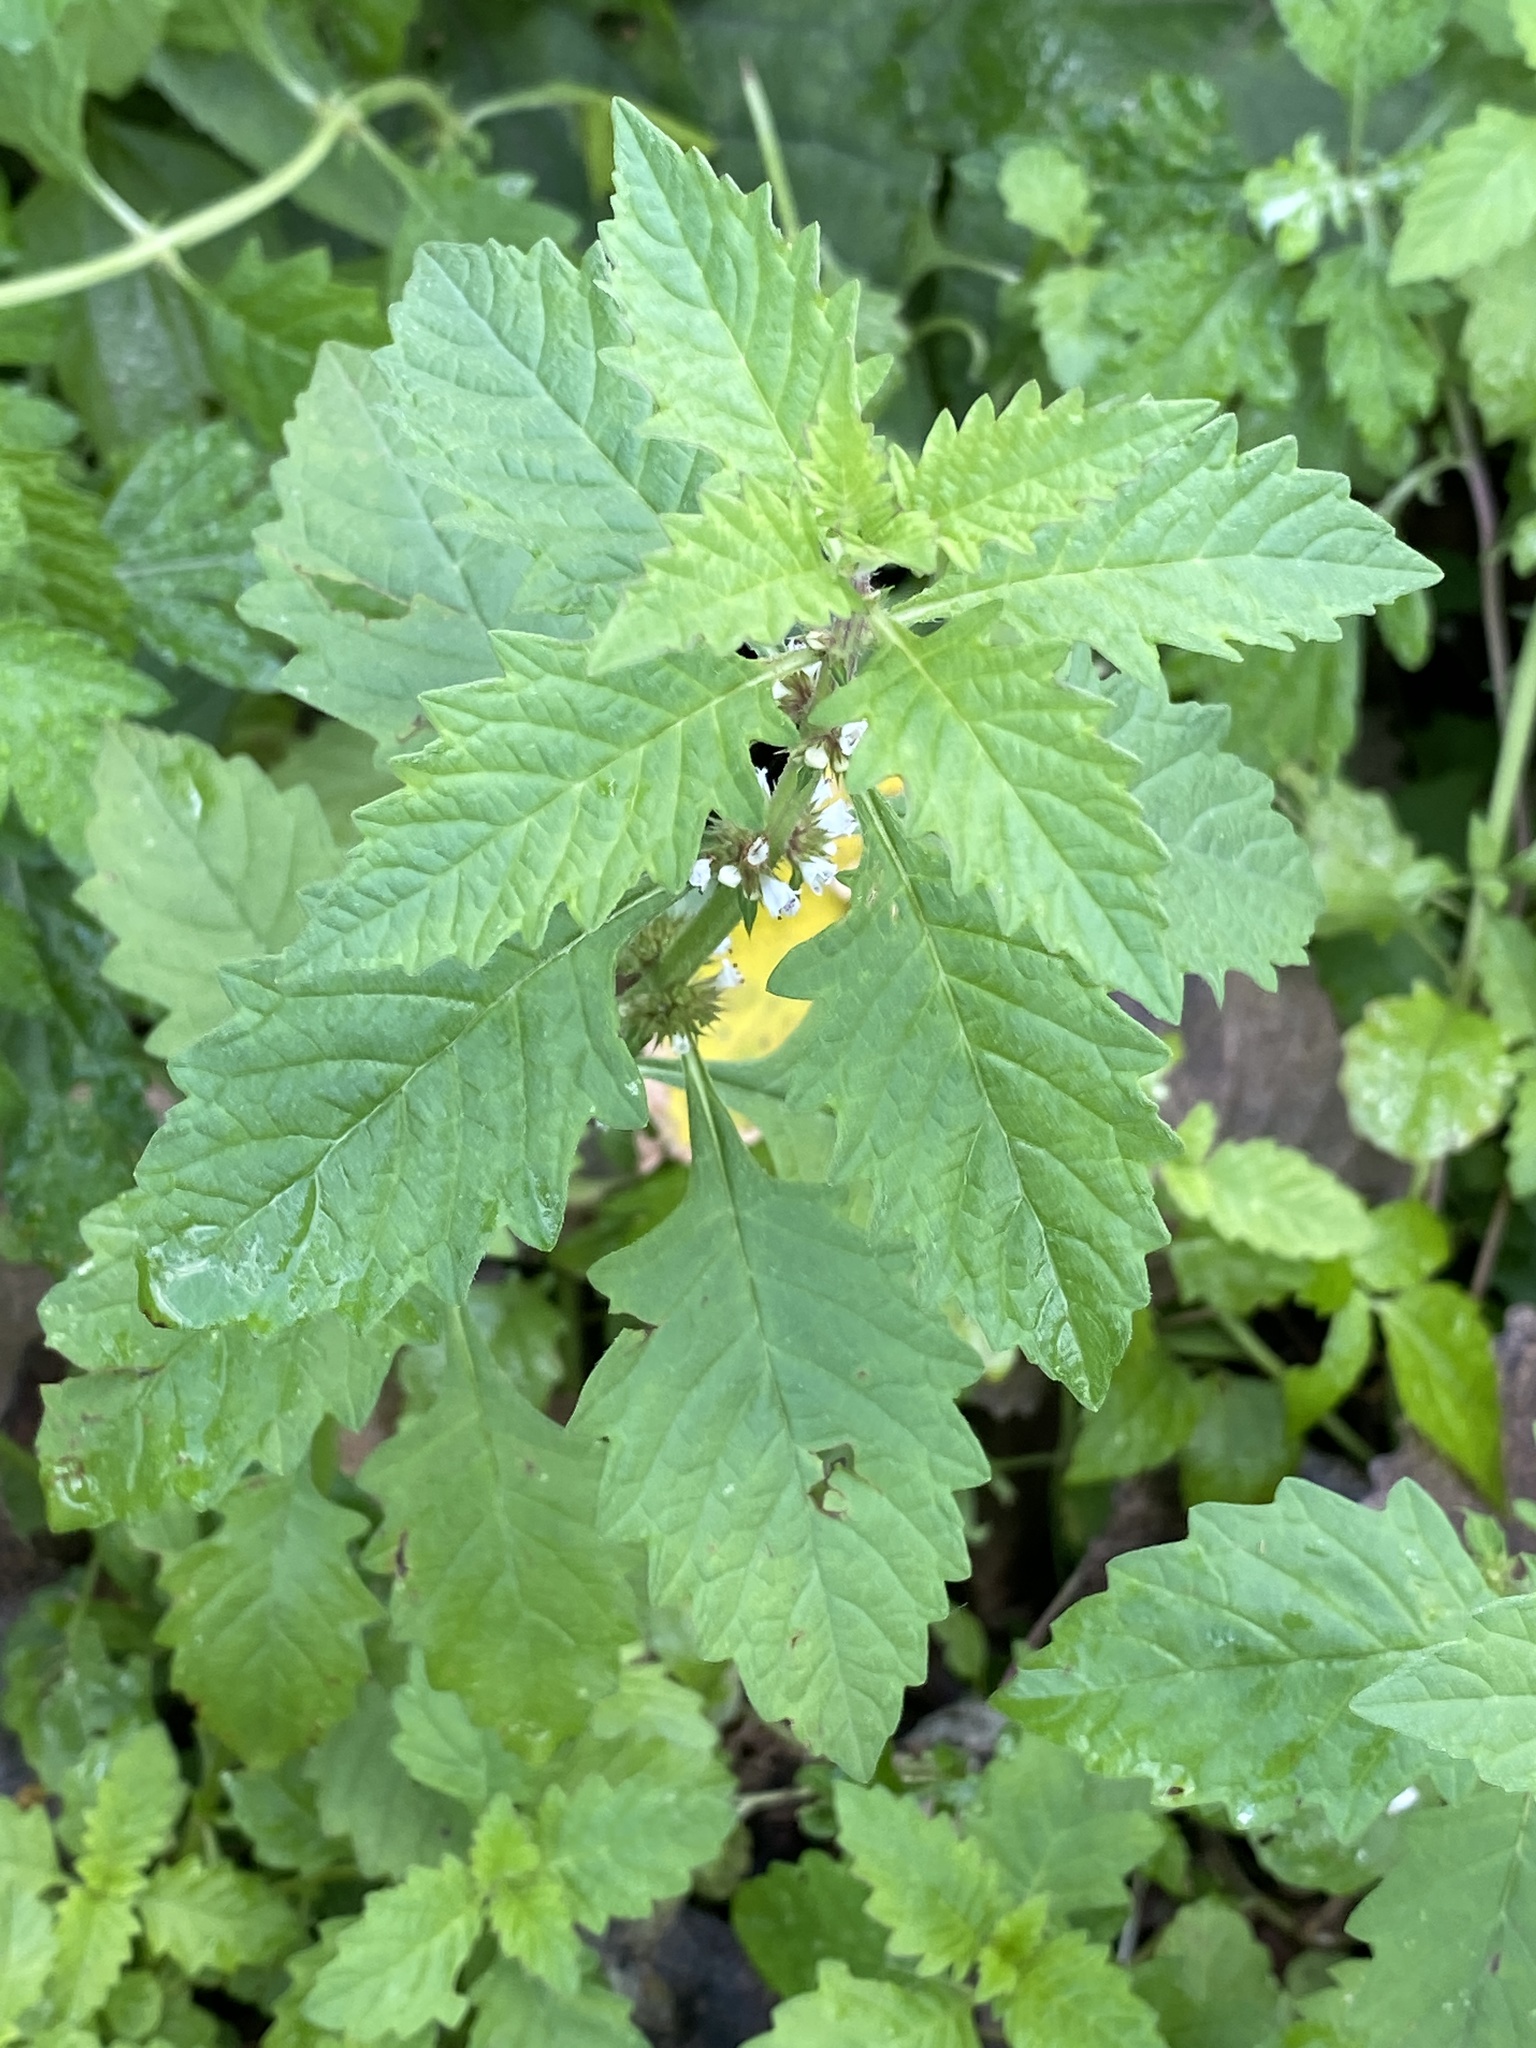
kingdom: Plantae
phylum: Tracheophyta
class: Magnoliopsida
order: Lamiales
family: Lamiaceae
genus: Lycopus
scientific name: Lycopus europaeus
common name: European bugleweed
